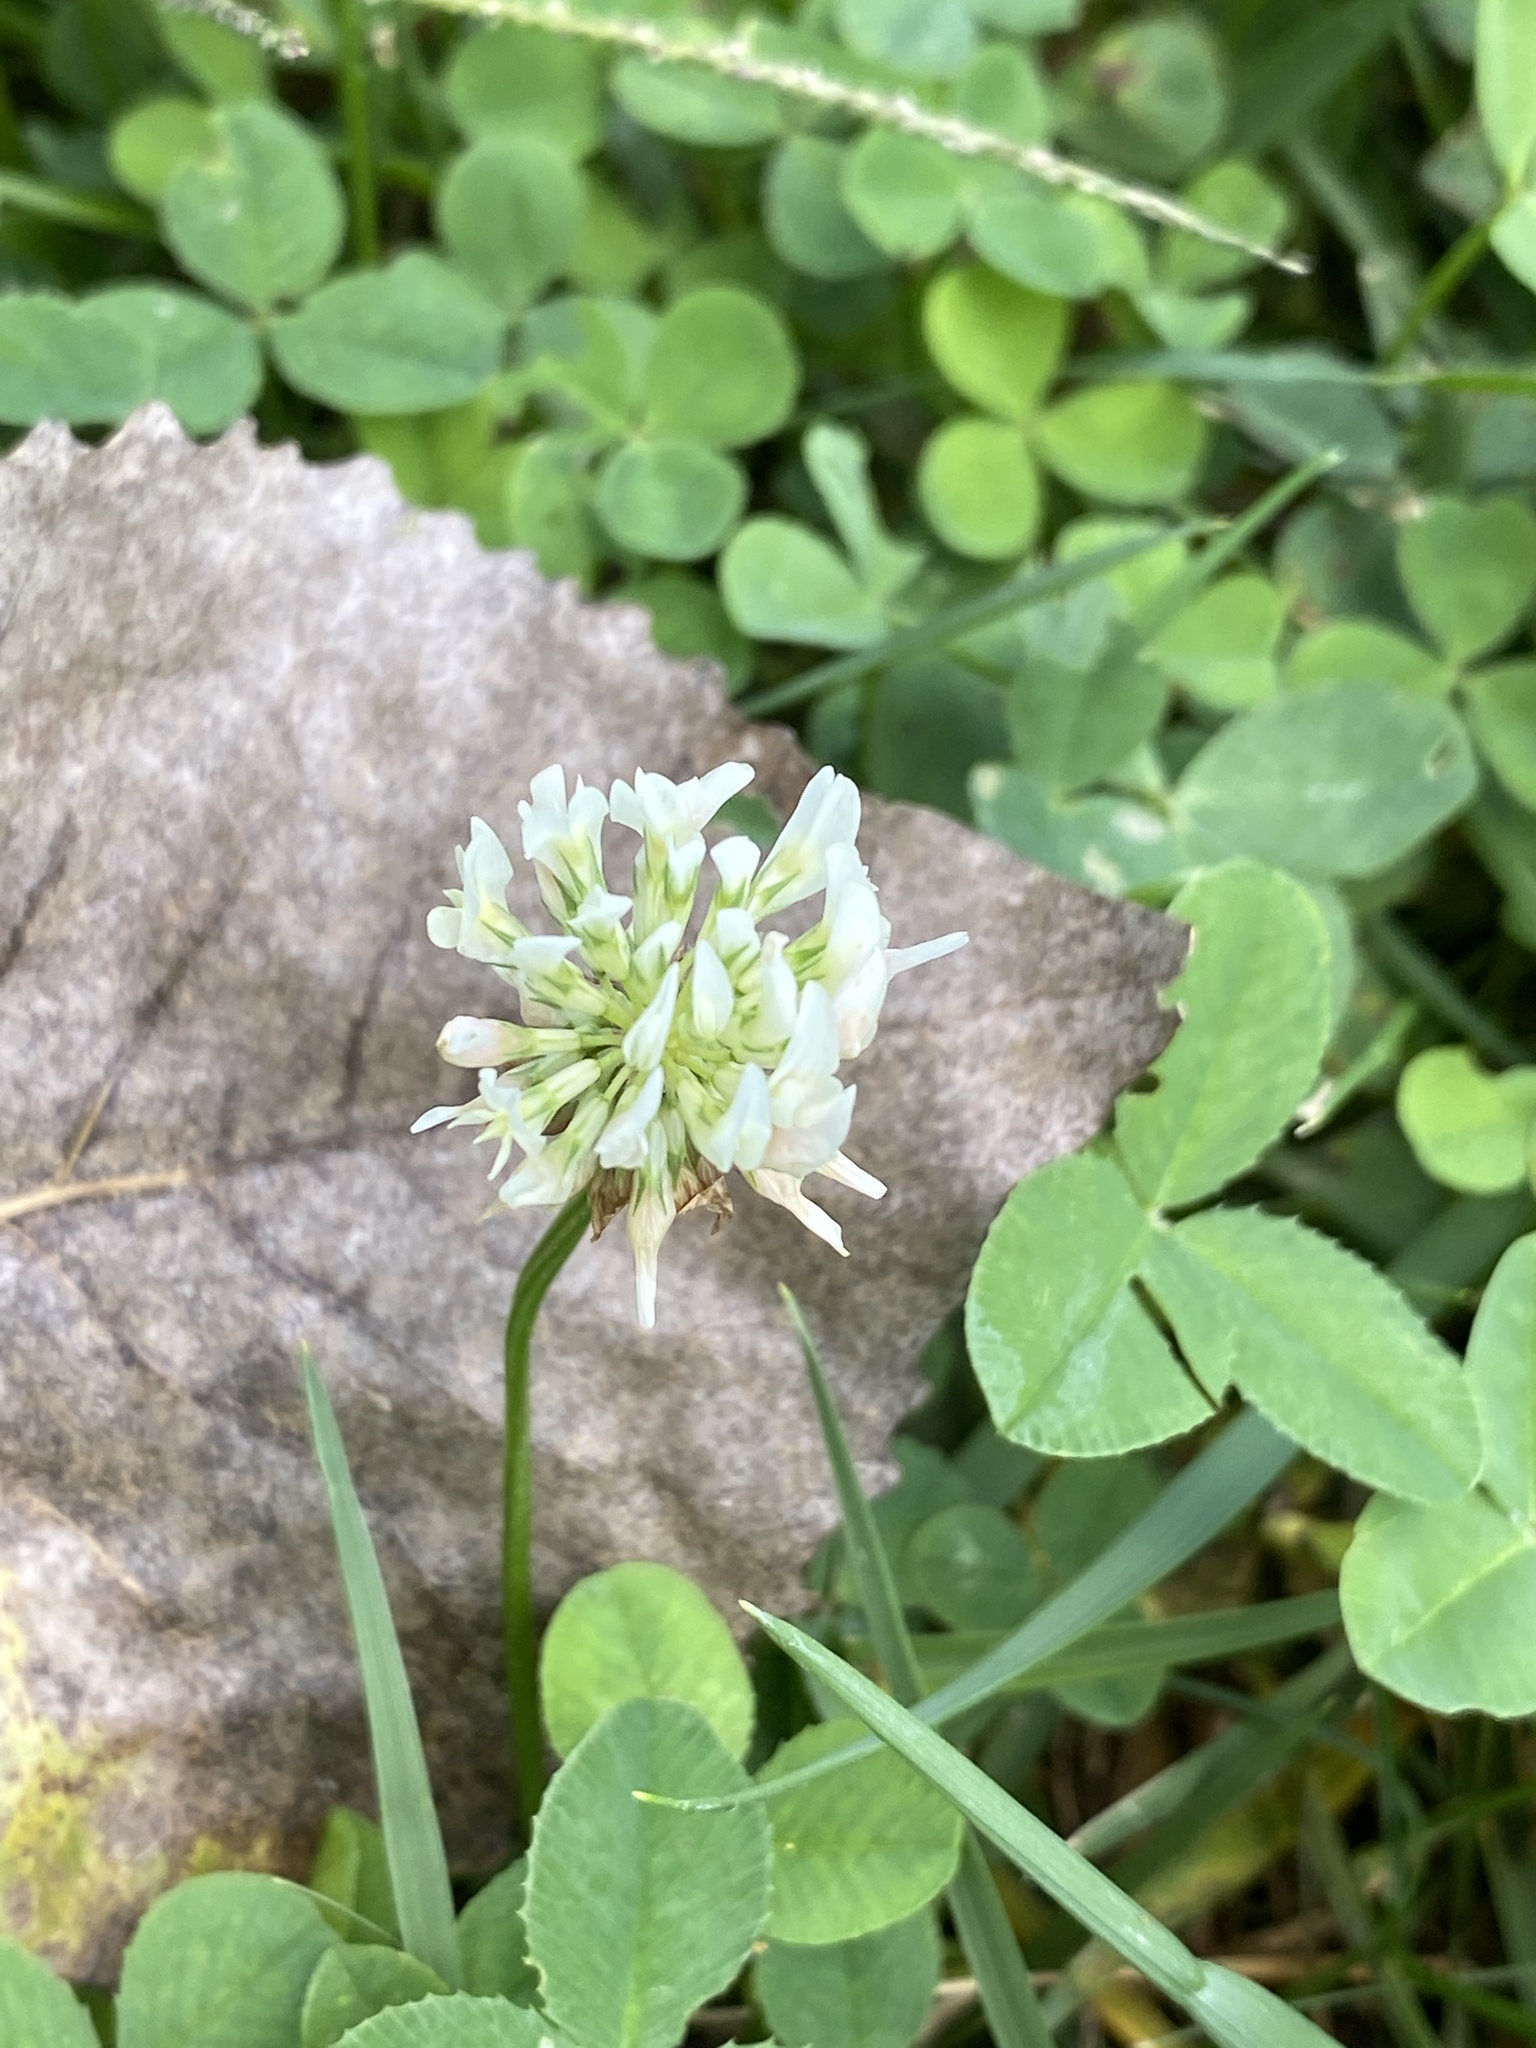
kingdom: Plantae
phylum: Tracheophyta
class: Magnoliopsida
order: Fabales
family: Fabaceae
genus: Trifolium
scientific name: Trifolium repens
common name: White clover
